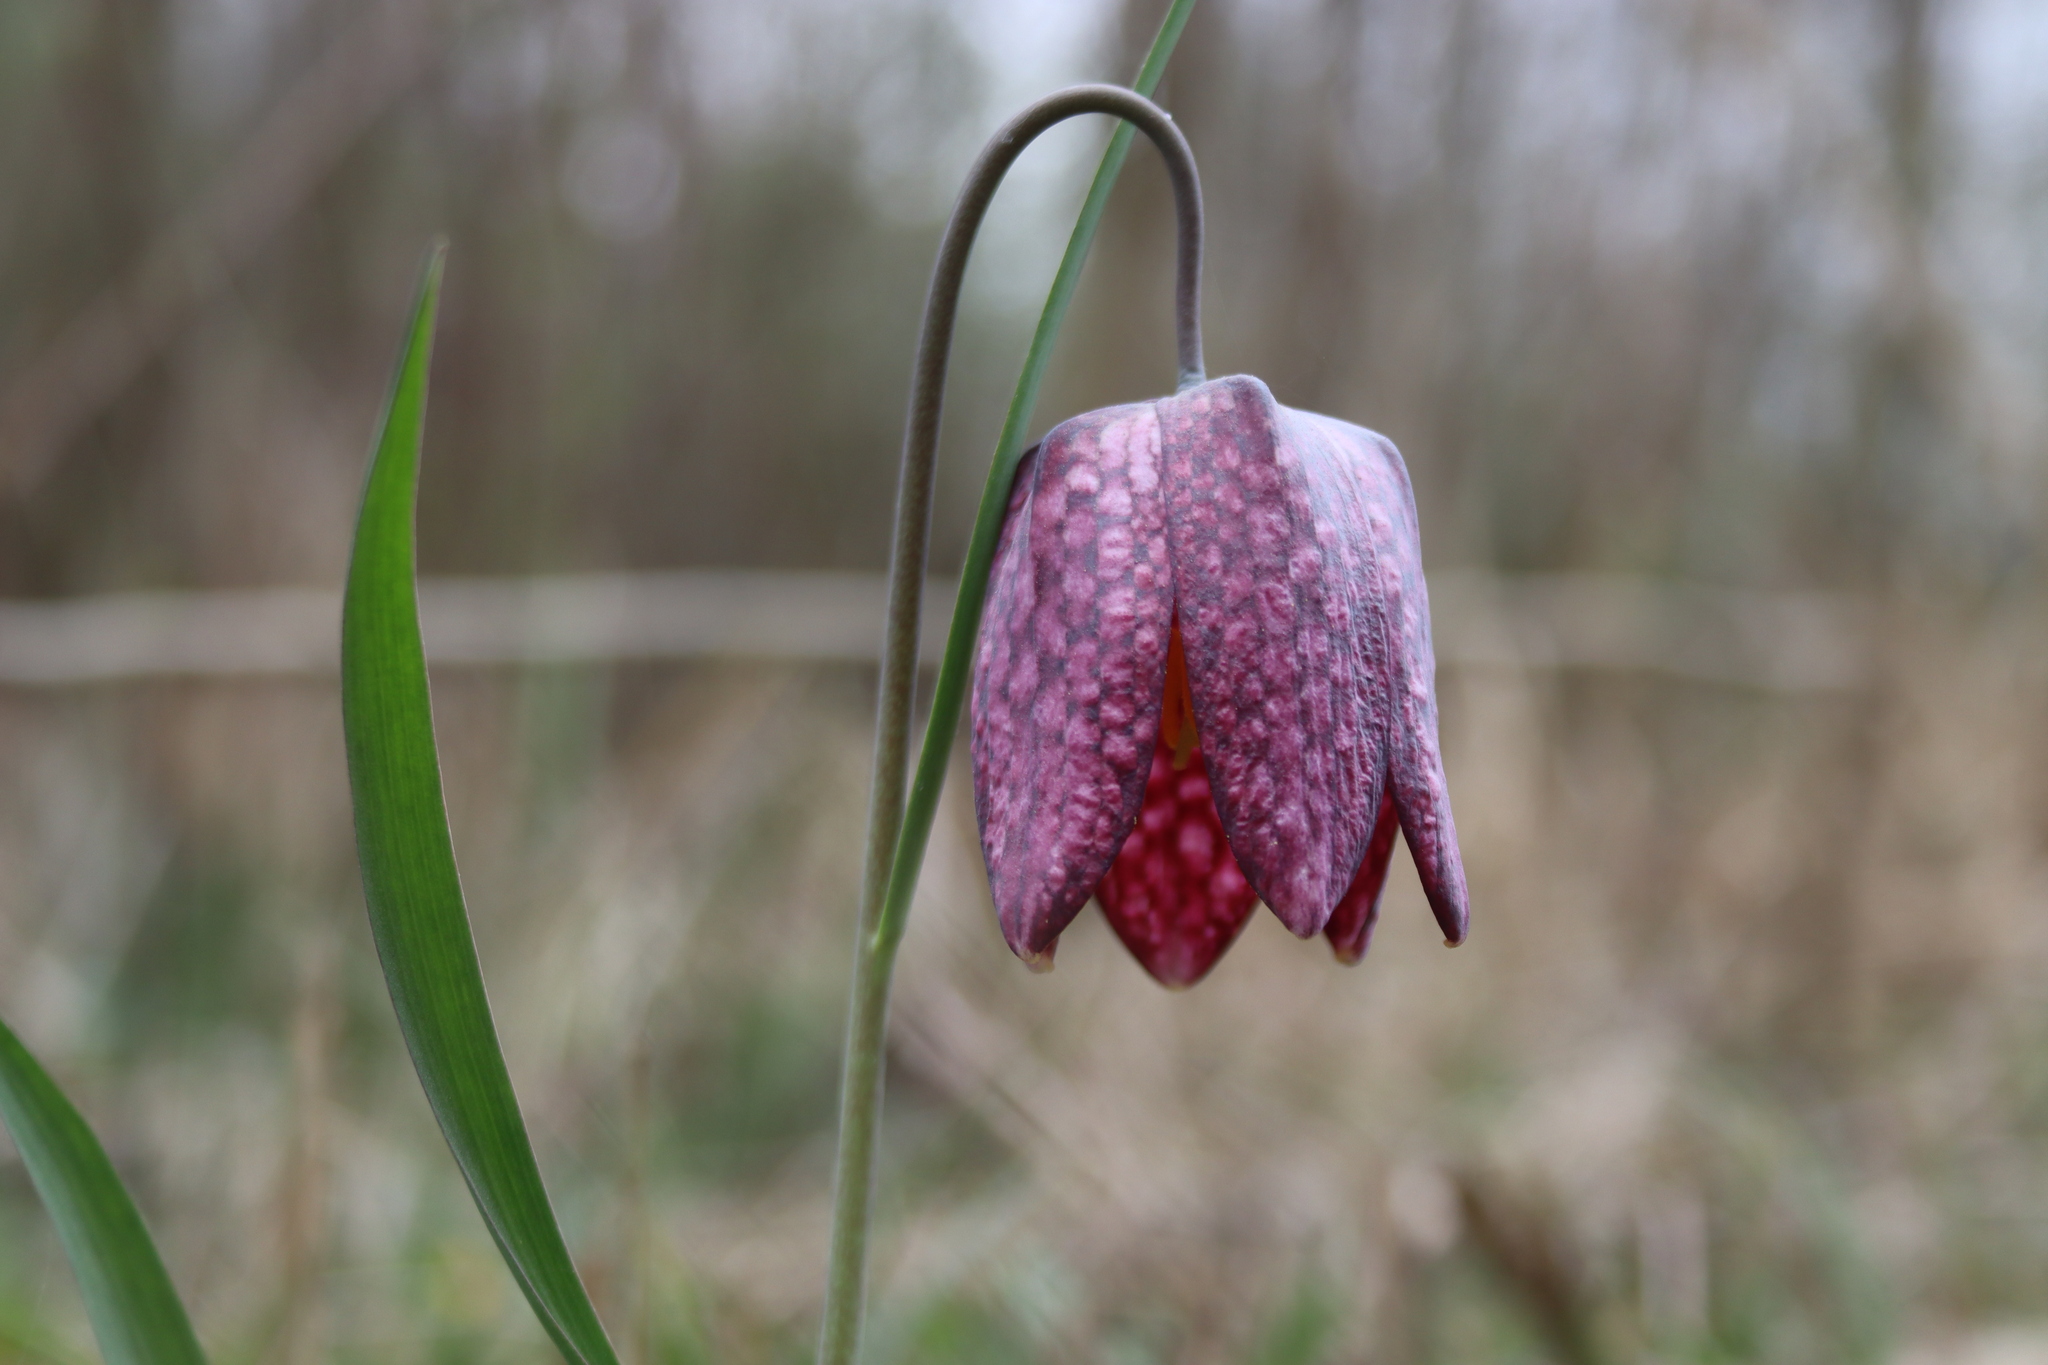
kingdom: Plantae
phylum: Tracheophyta
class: Liliopsida
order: Liliales
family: Liliaceae
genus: Fritillaria
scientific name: Fritillaria meleagris
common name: Fritillary
